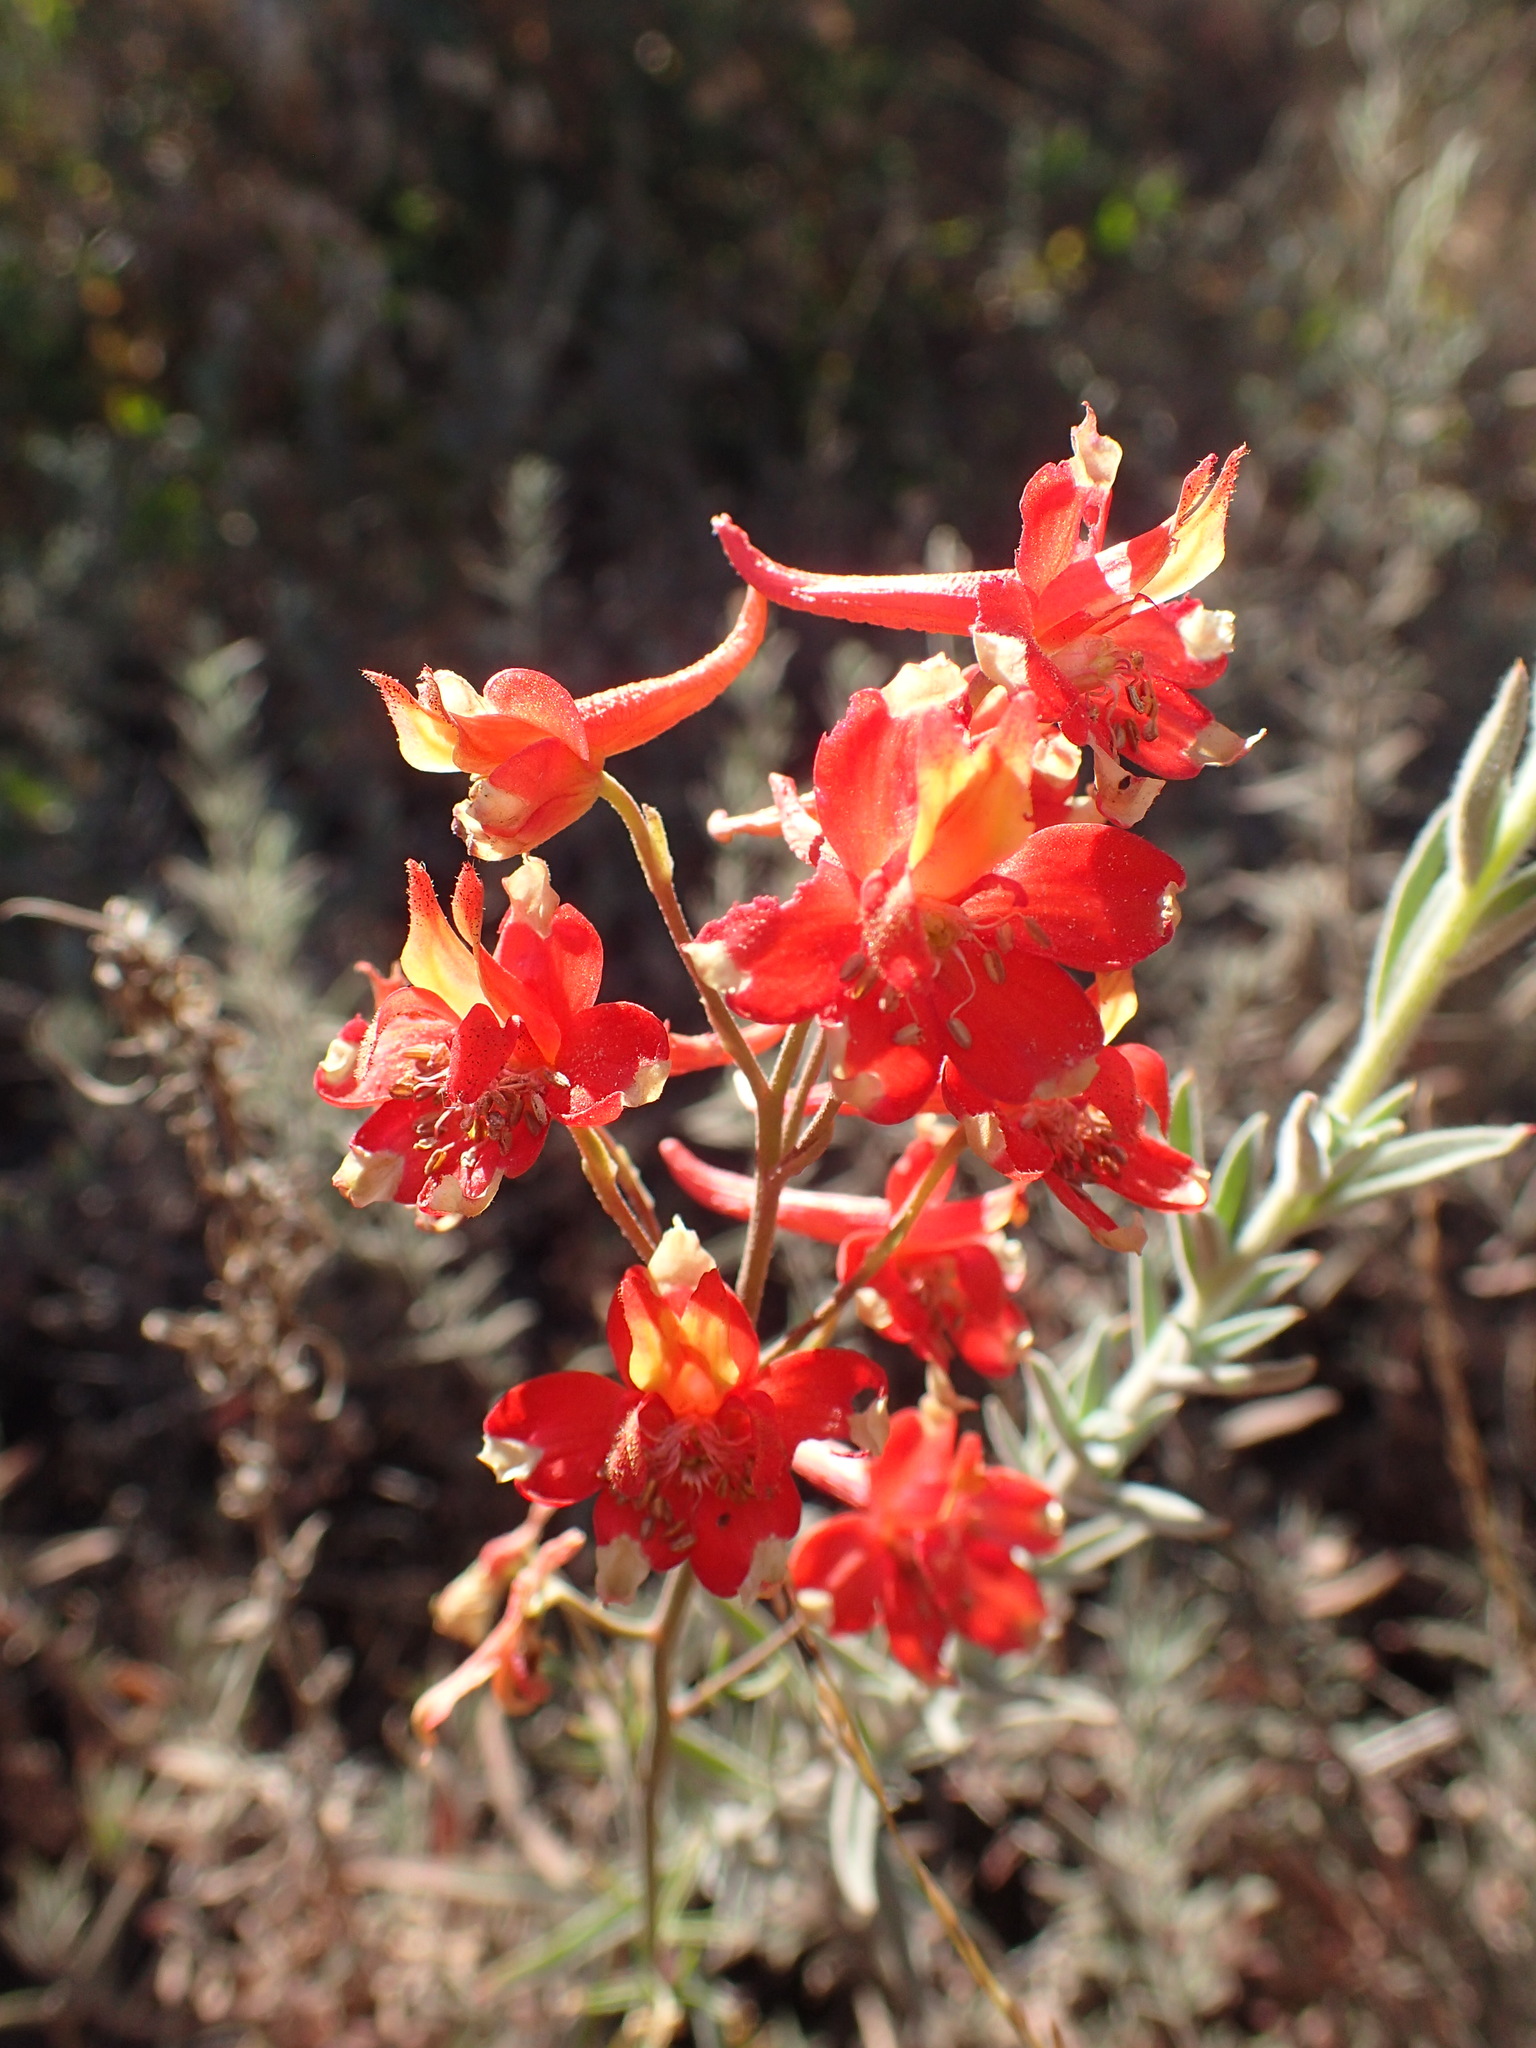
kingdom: Plantae
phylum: Tracheophyta
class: Magnoliopsida
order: Ranunculales
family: Ranunculaceae
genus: Delphinium
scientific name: Delphinium cardinale
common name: Scarlet larkspur
